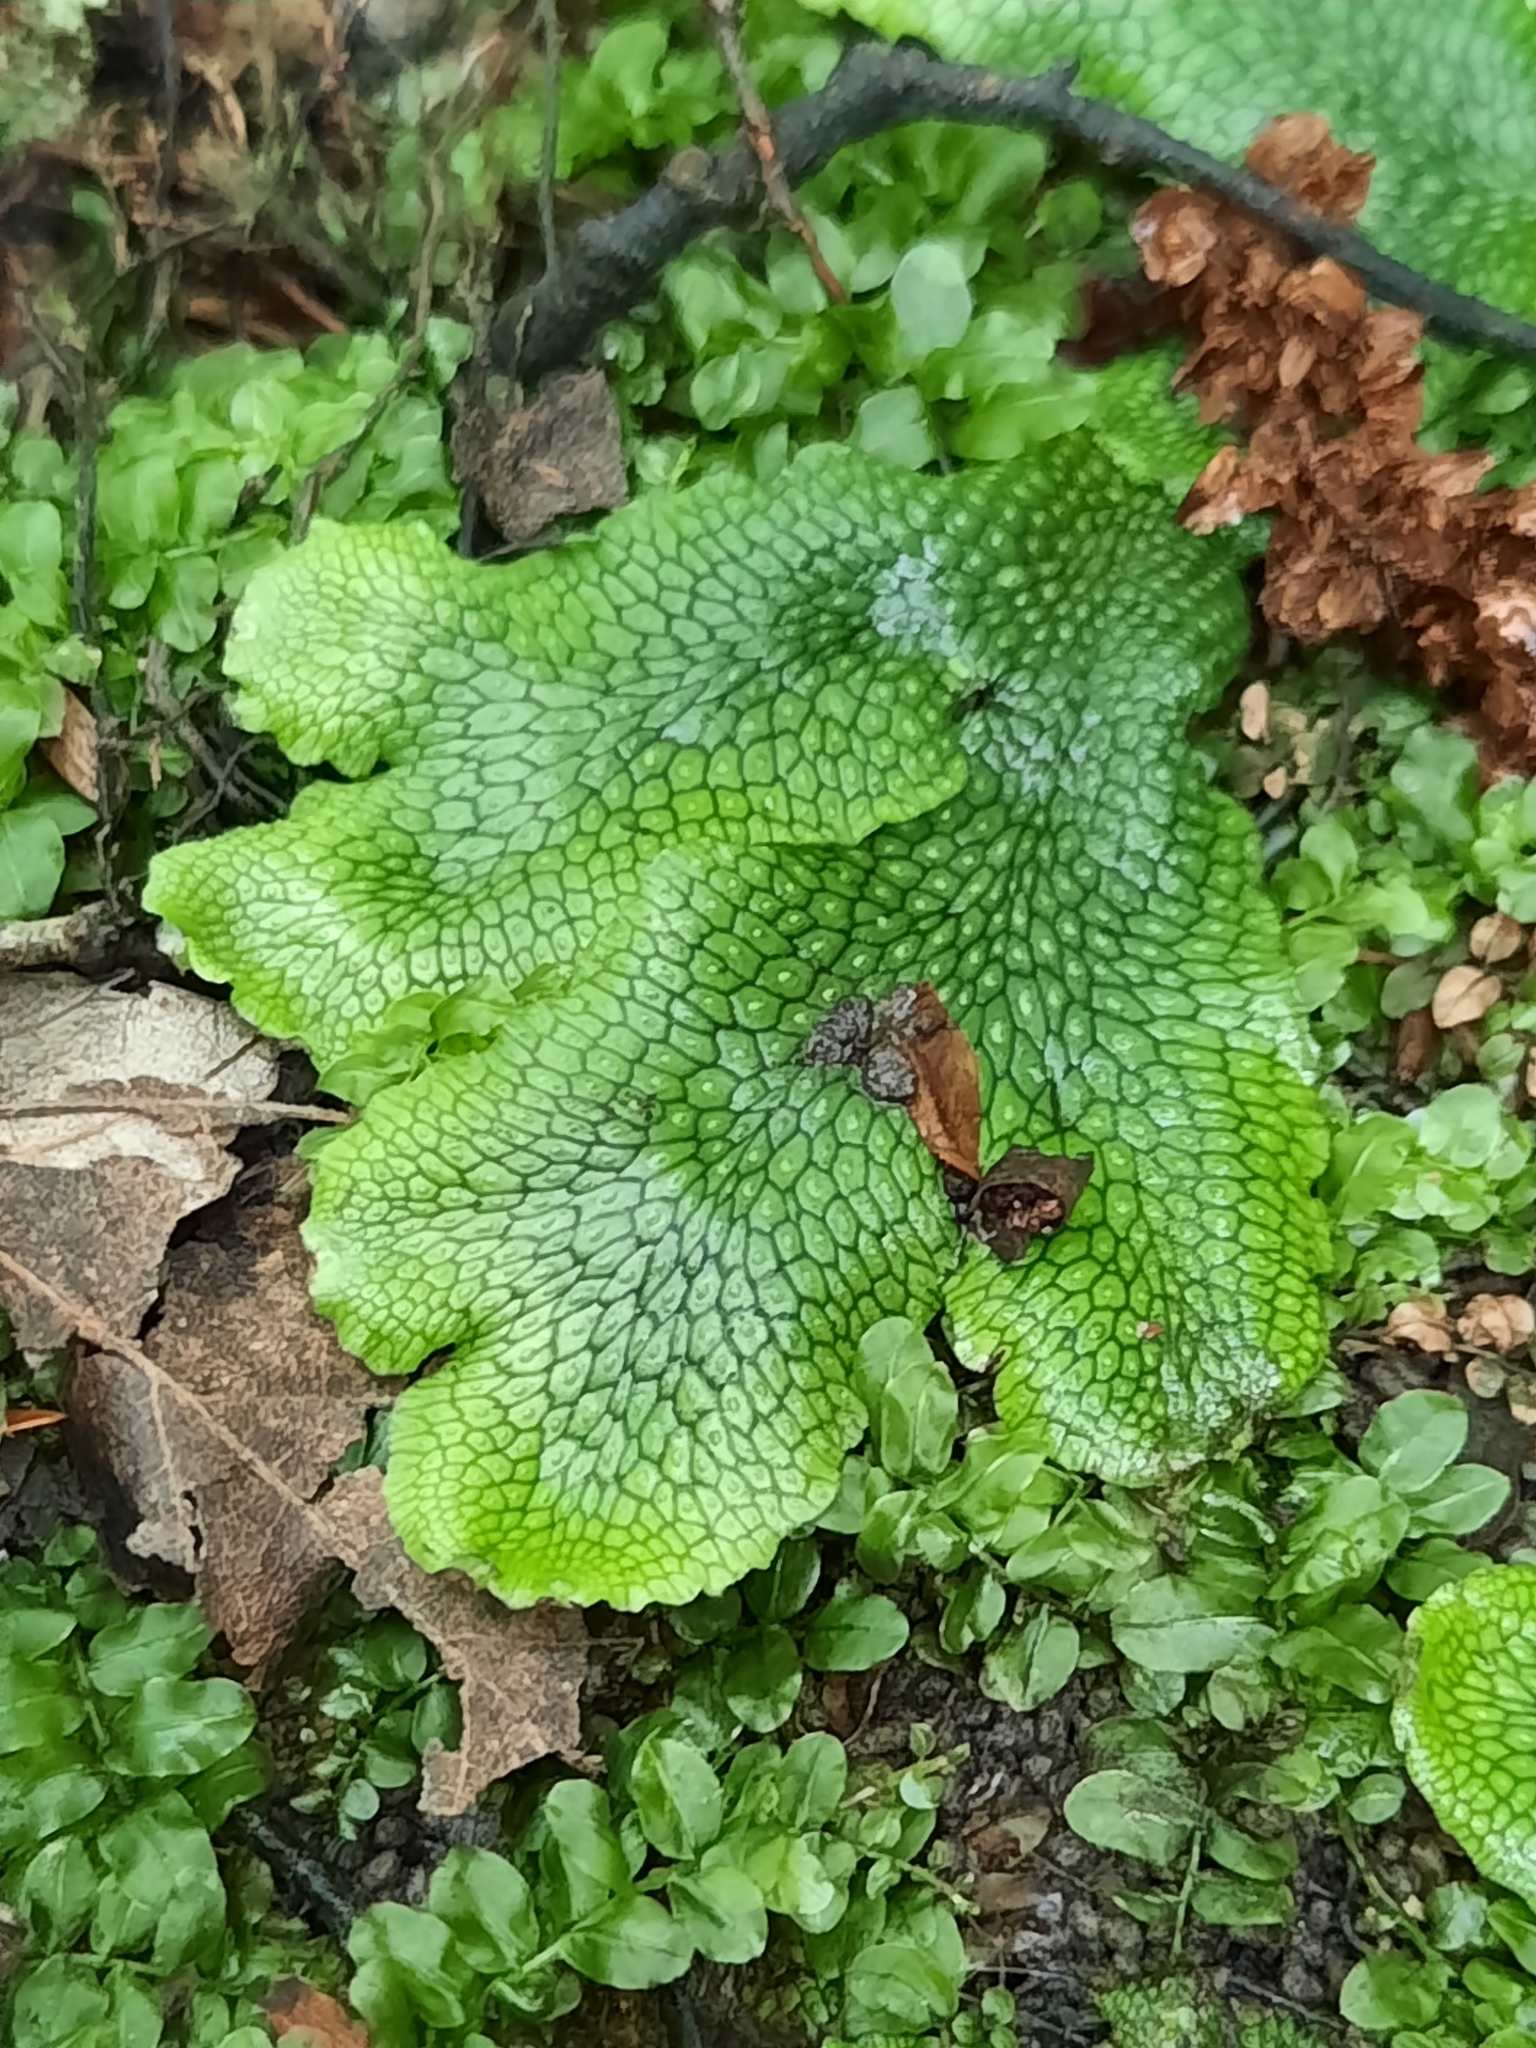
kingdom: Plantae
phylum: Marchantiophyta
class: Marchantiopsida
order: Marchantiales
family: Conocephalaceae
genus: Conocephalum
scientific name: Conocephalum salebrosum
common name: Cat-tongue liverwort
